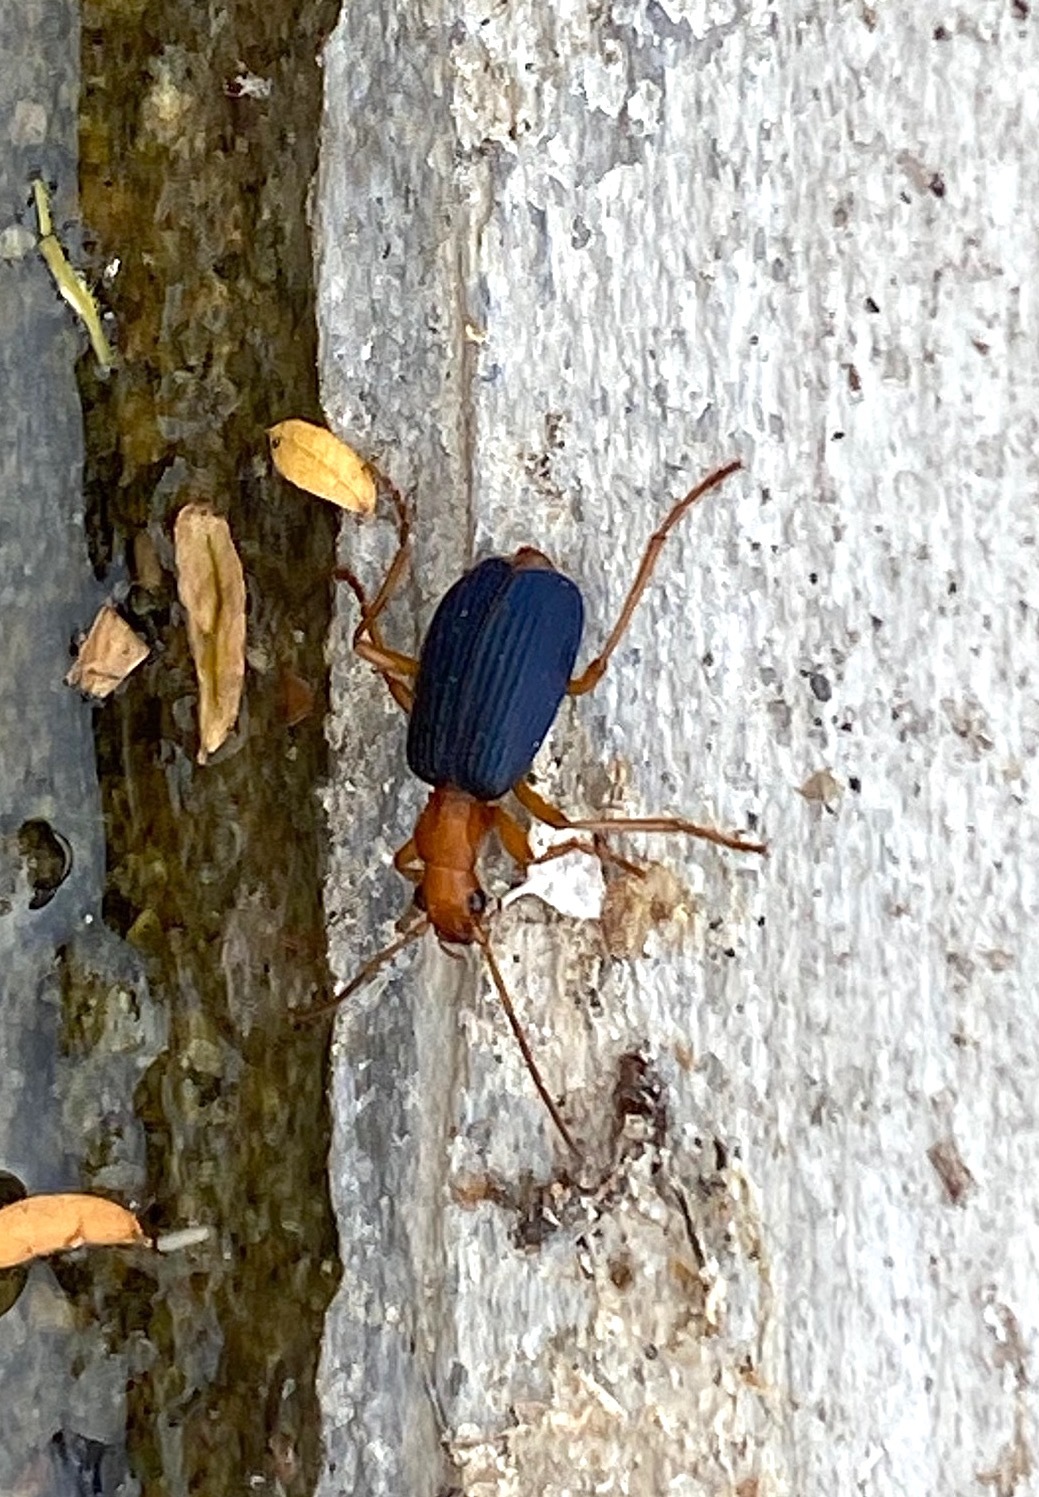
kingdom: Animalia
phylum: Arthropoda
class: Insecta
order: Coleoptera
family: Carabidae
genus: Brachinus
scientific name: Brachinus
